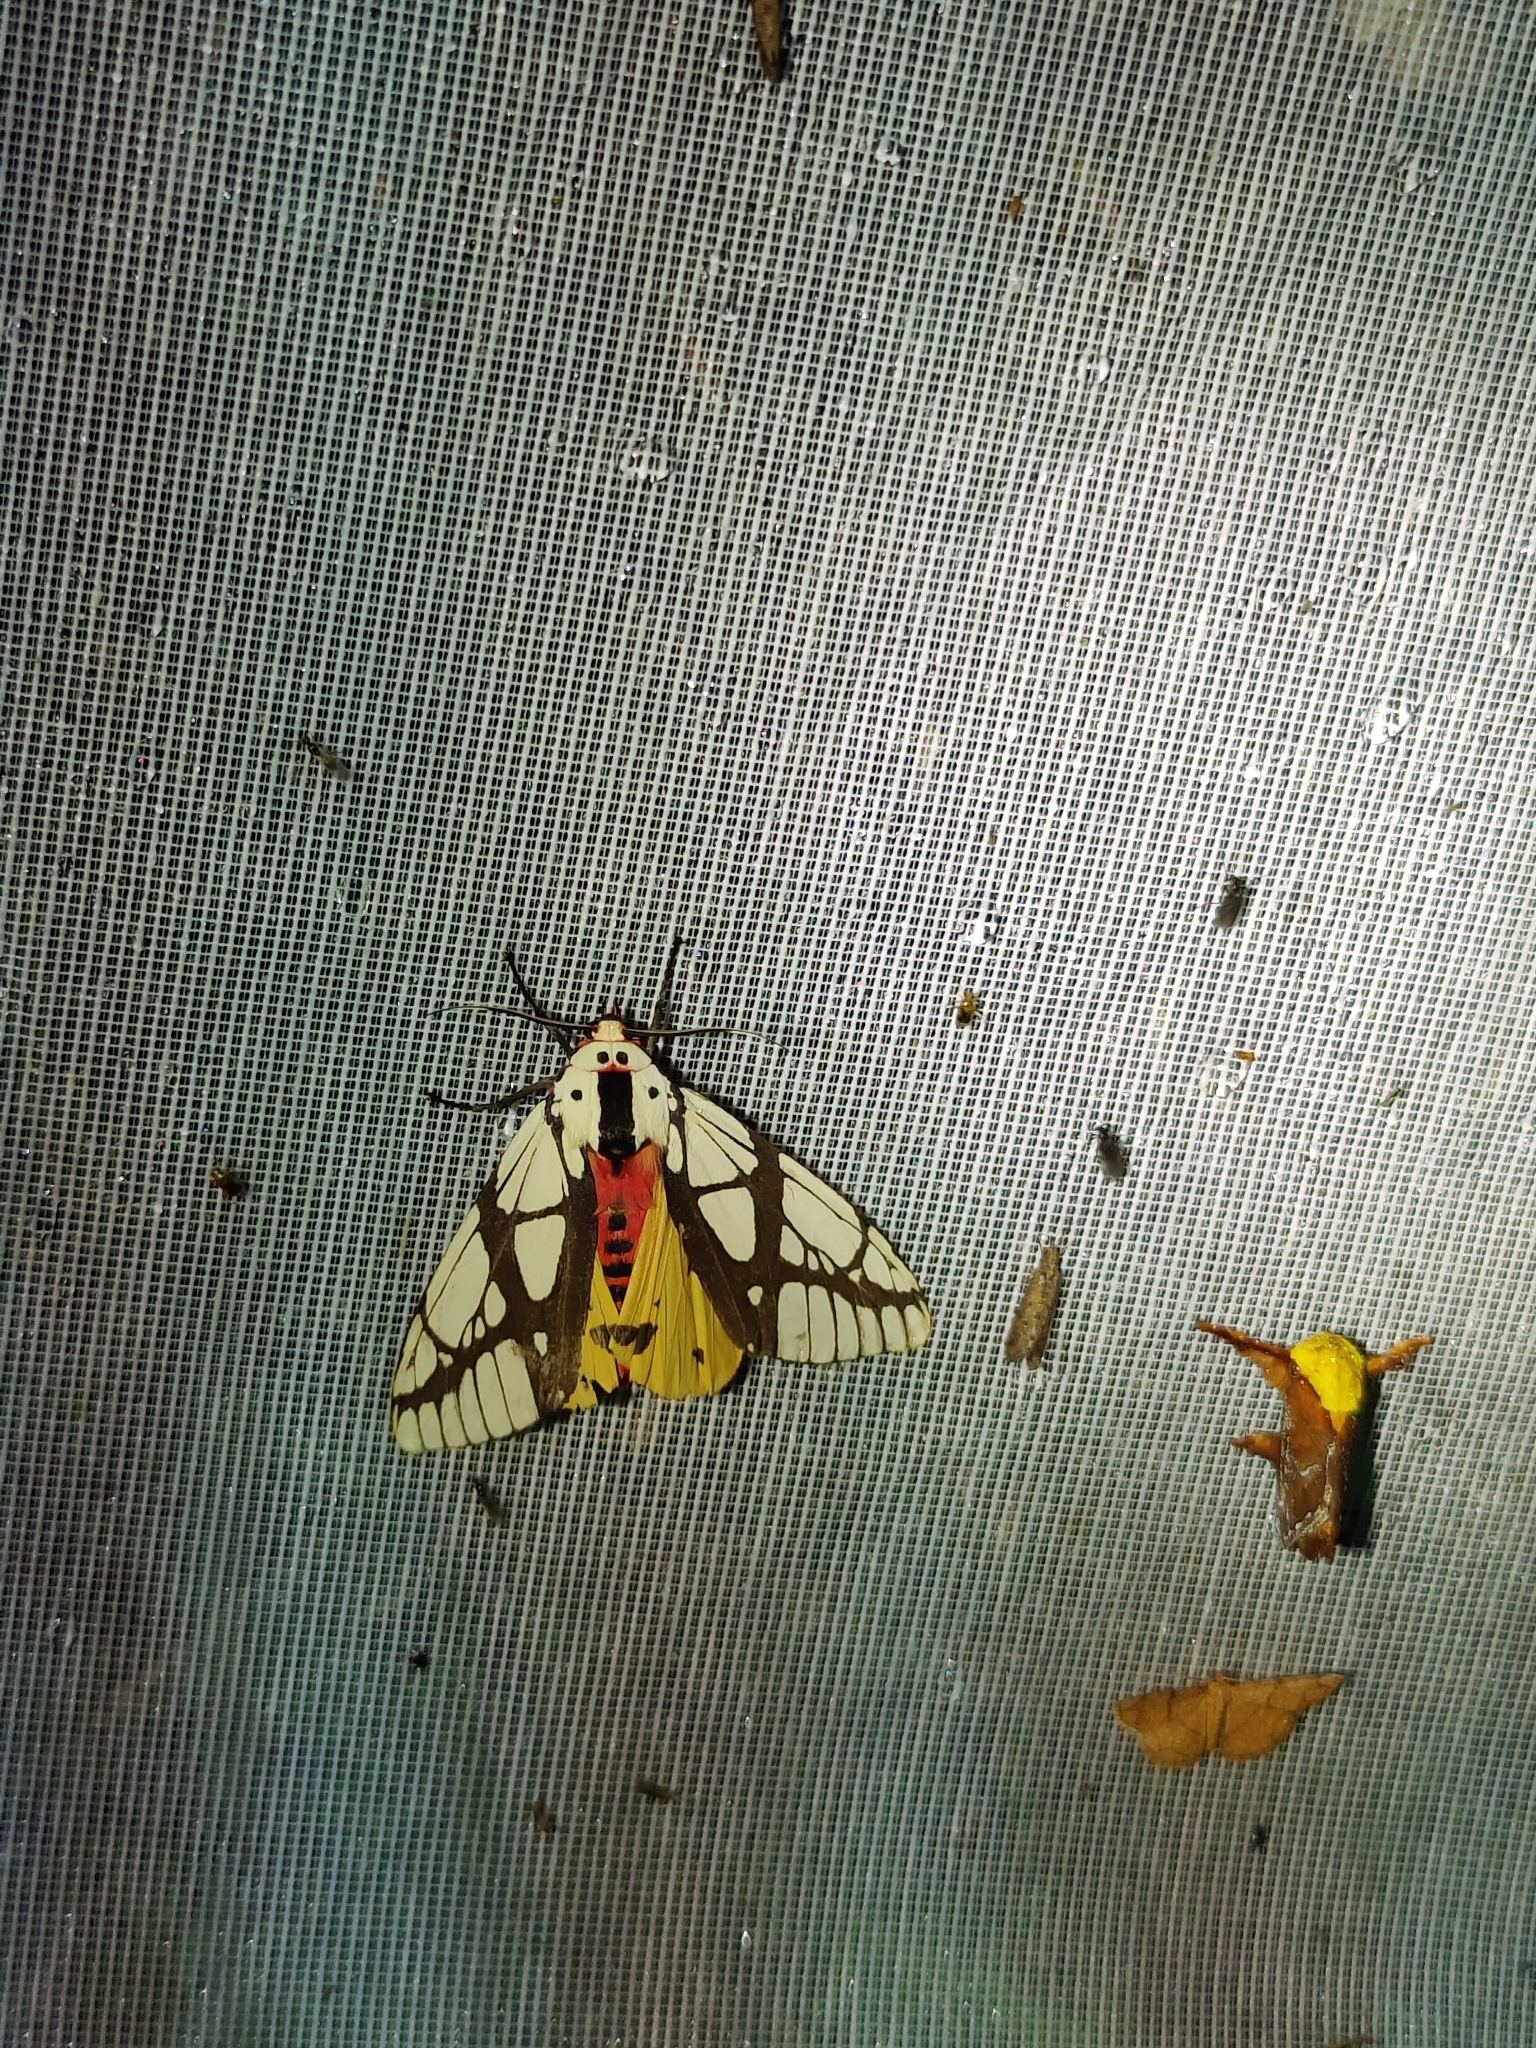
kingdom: Animalia
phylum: Arthropoda
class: Insecta
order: Lepidoptera
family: Erebidae
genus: Areas
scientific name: Areas galactina
